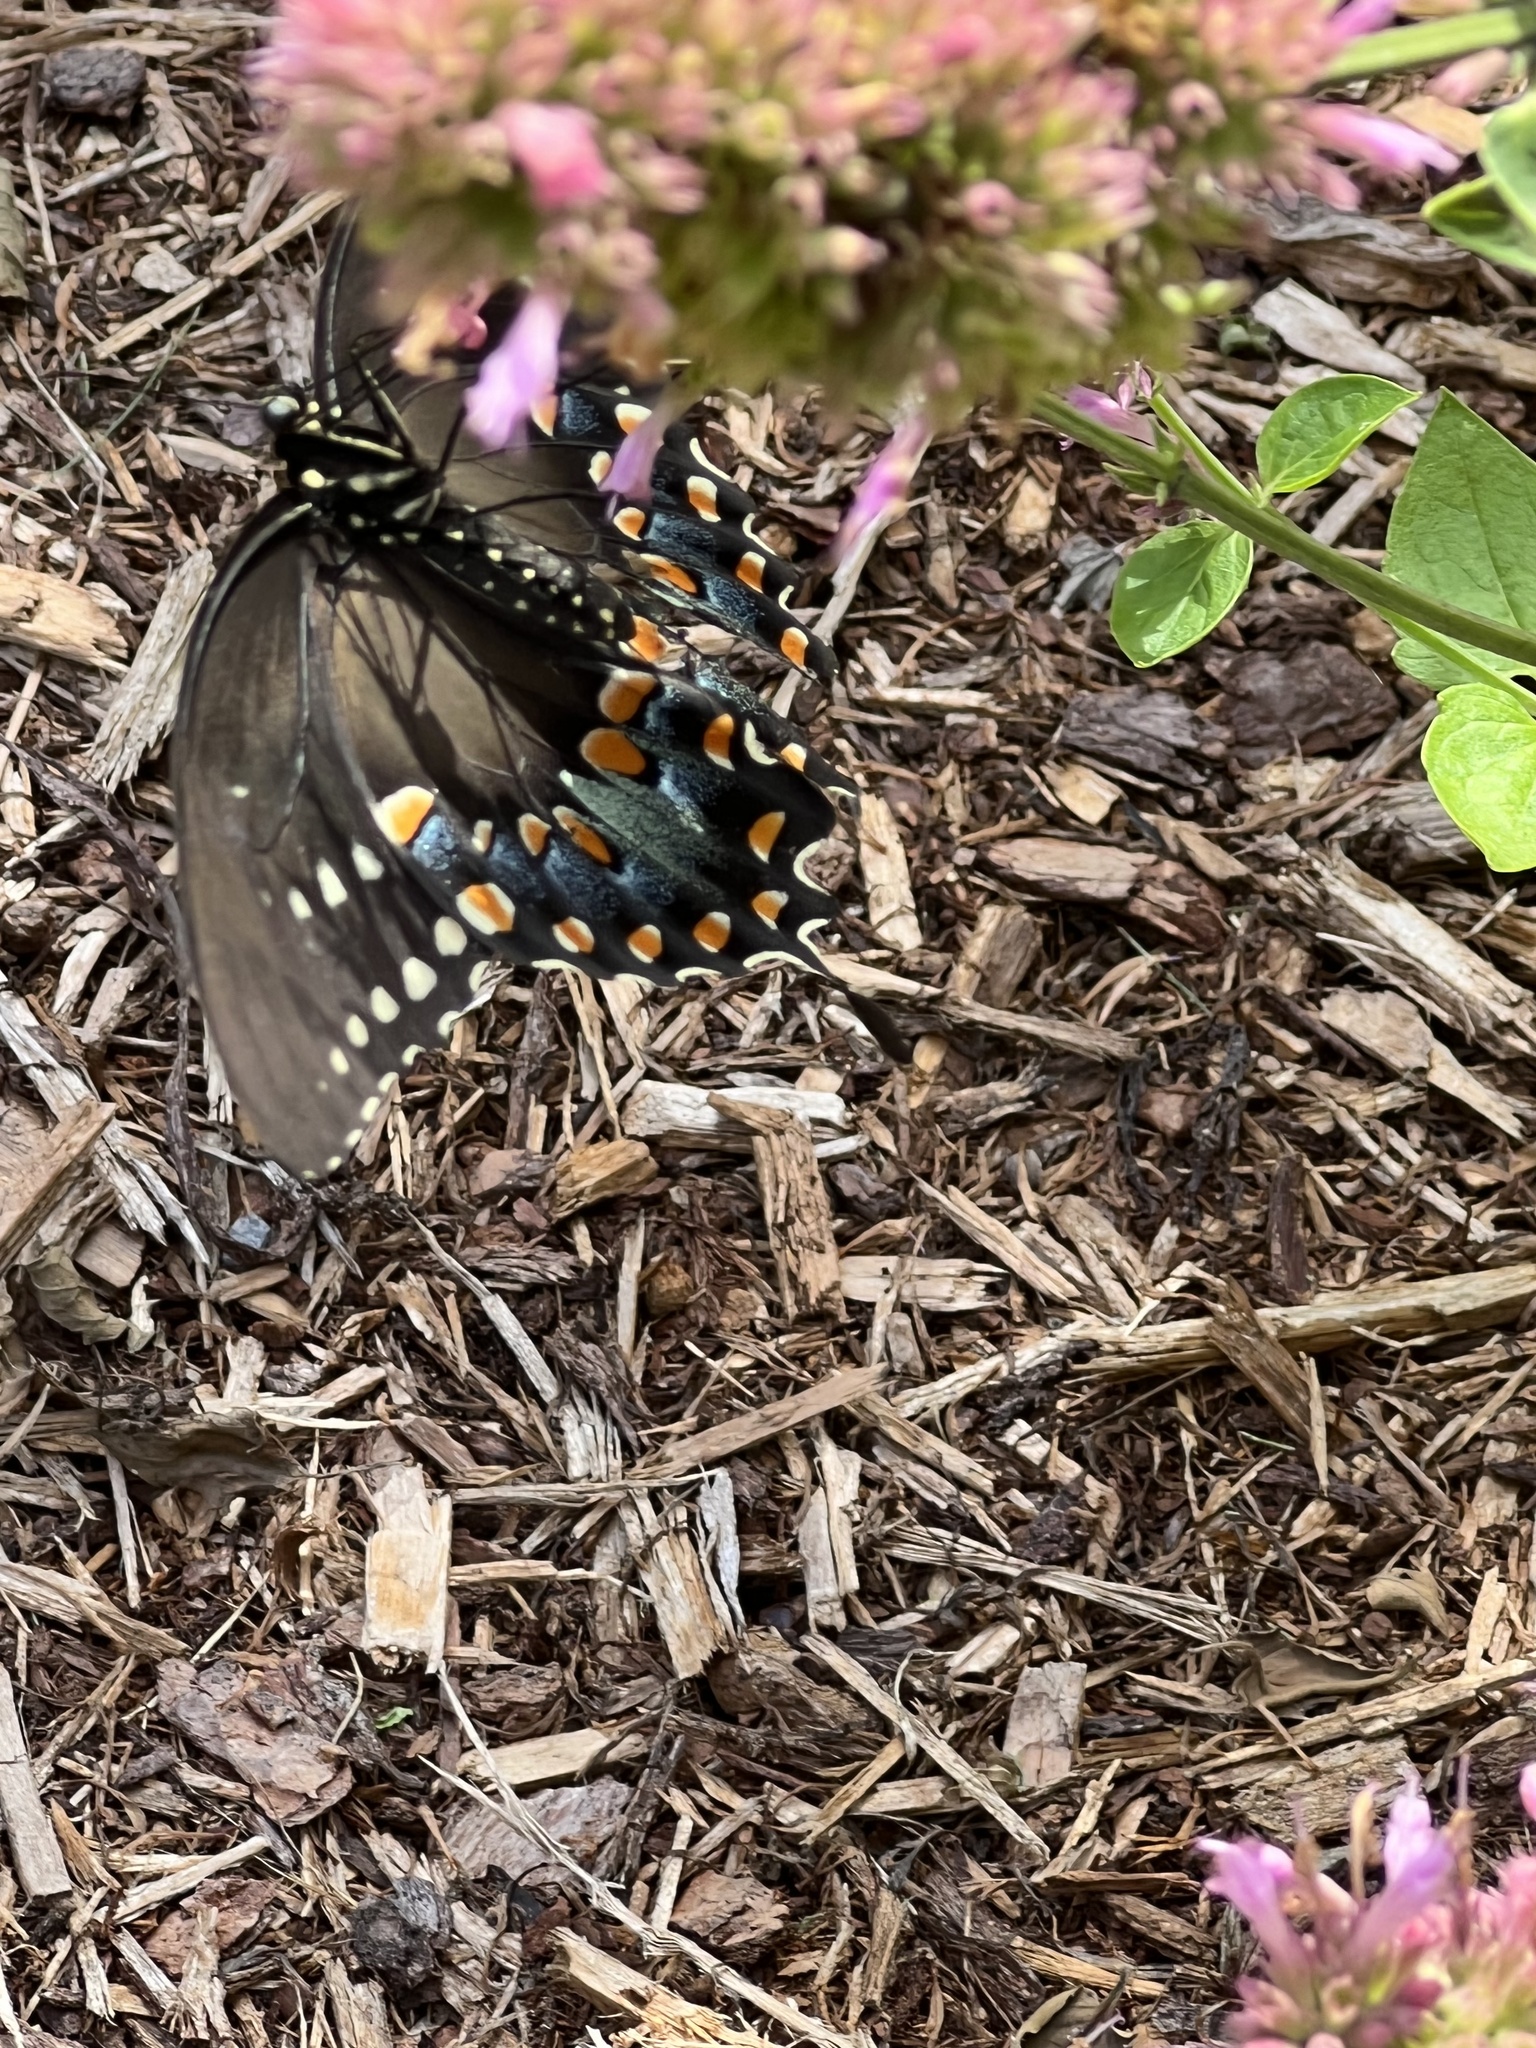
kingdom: Animalia
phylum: Arthropoda
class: Insecta
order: Lepidoptera
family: Papilionidae
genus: Papilio
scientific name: Papilio troilus
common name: Spicebush swallowtail
